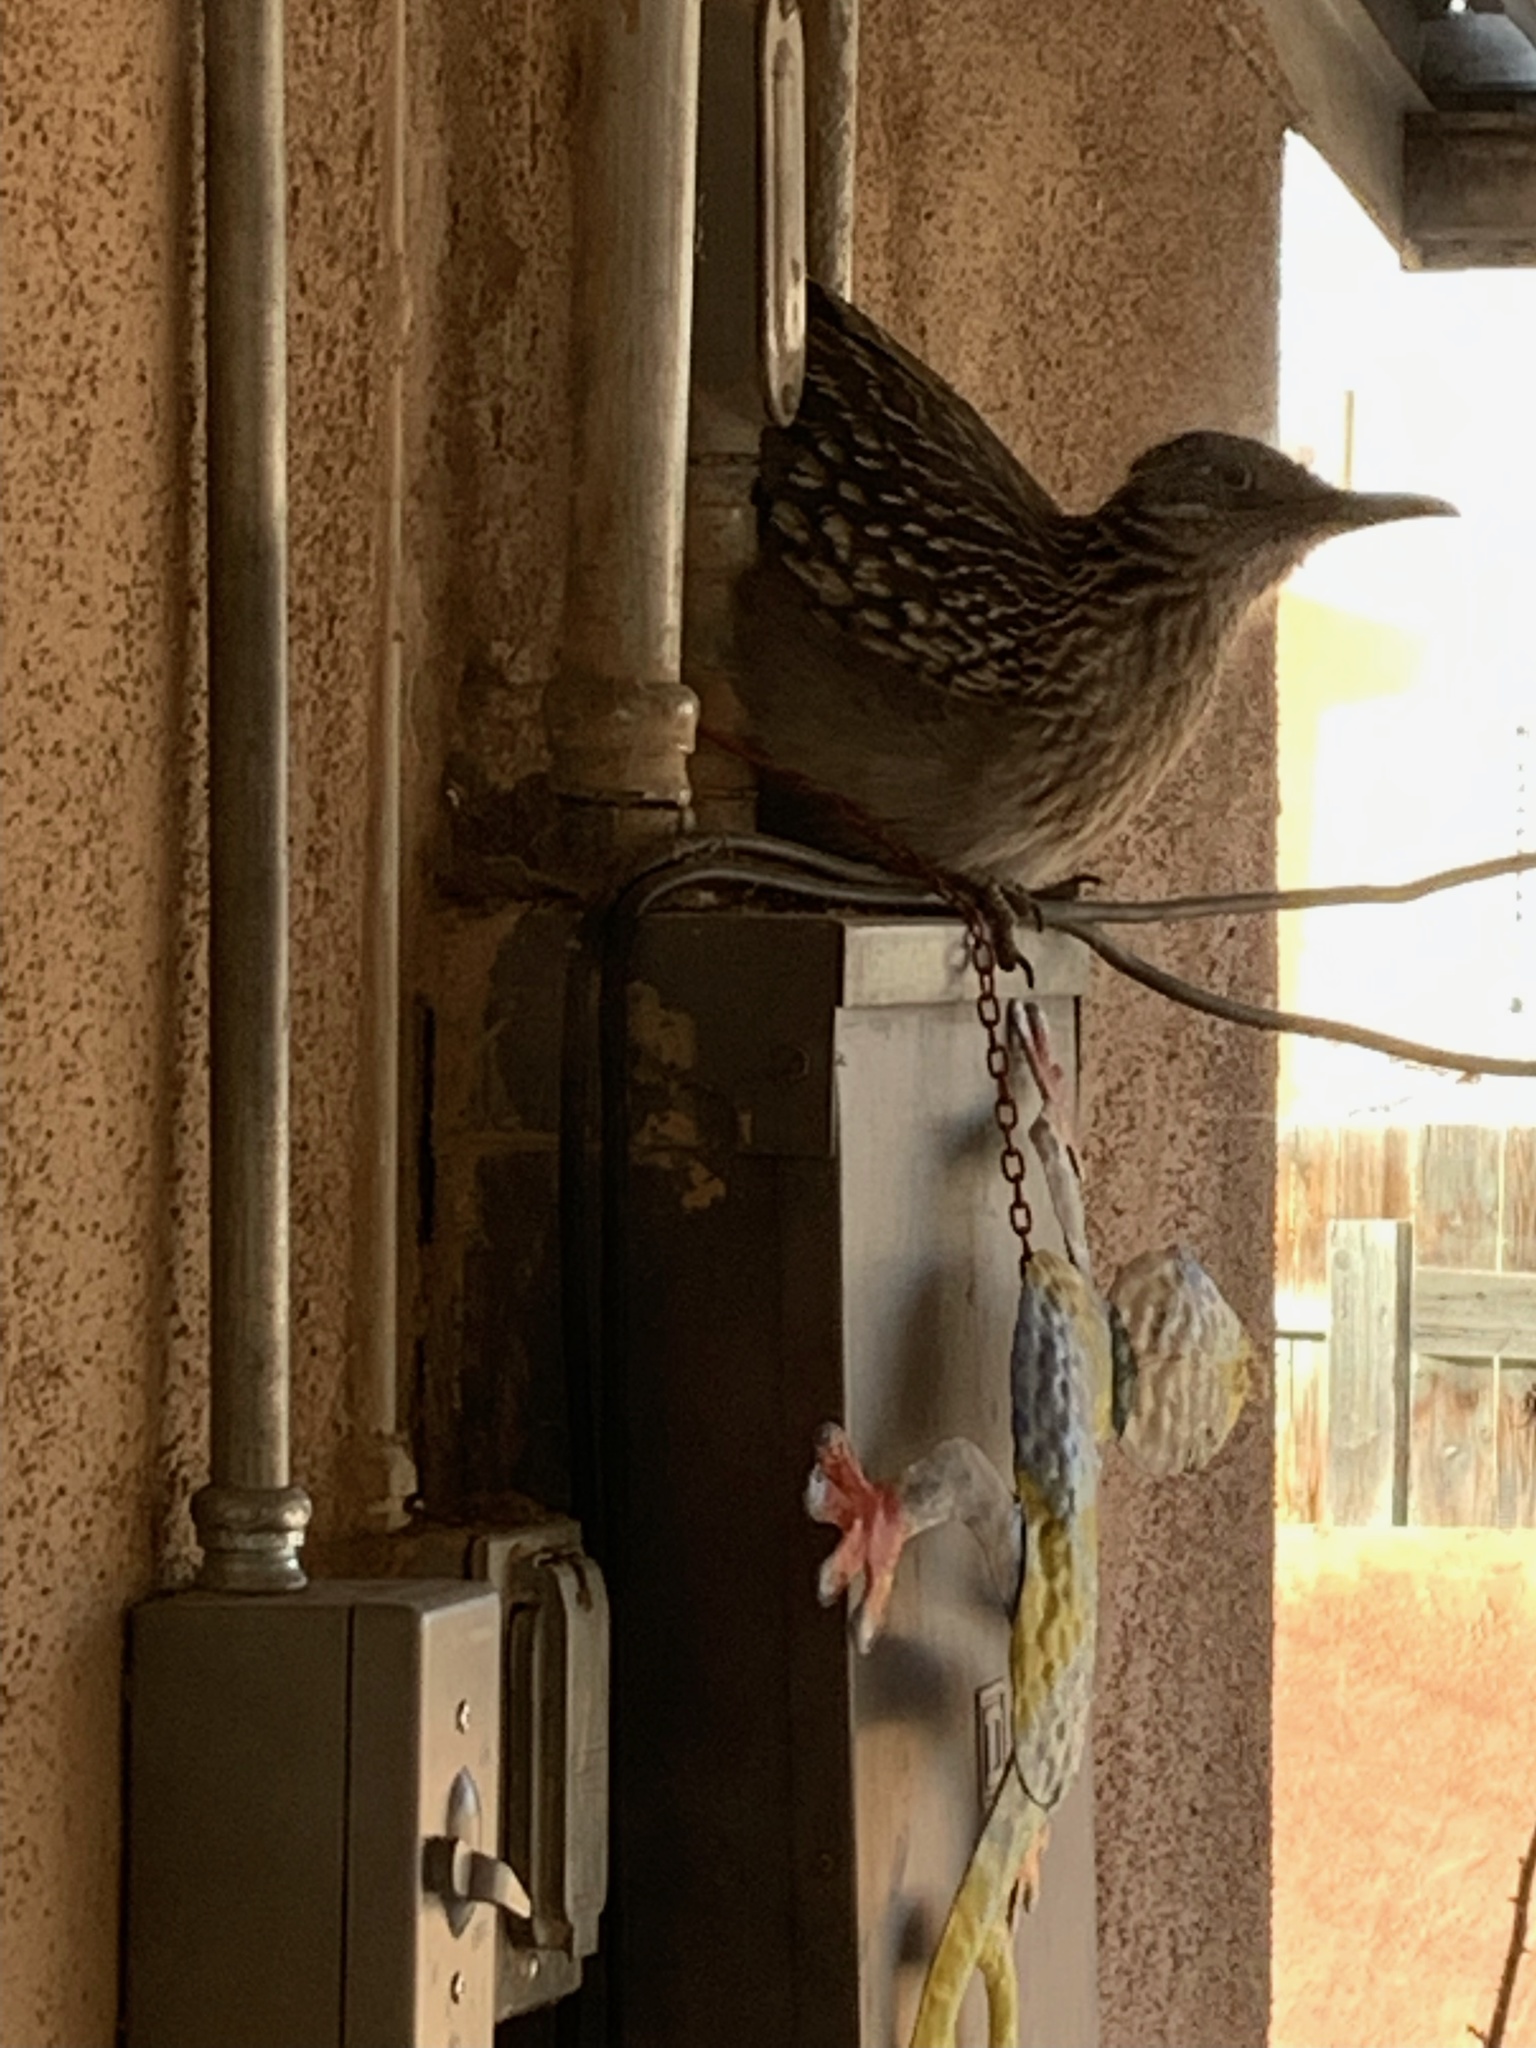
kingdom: Animalia
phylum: Chordata
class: Aves
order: Cuculiformes
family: Cuculidae
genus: Geococcyx
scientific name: Geococcyx californianus
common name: Greater roadrunner
